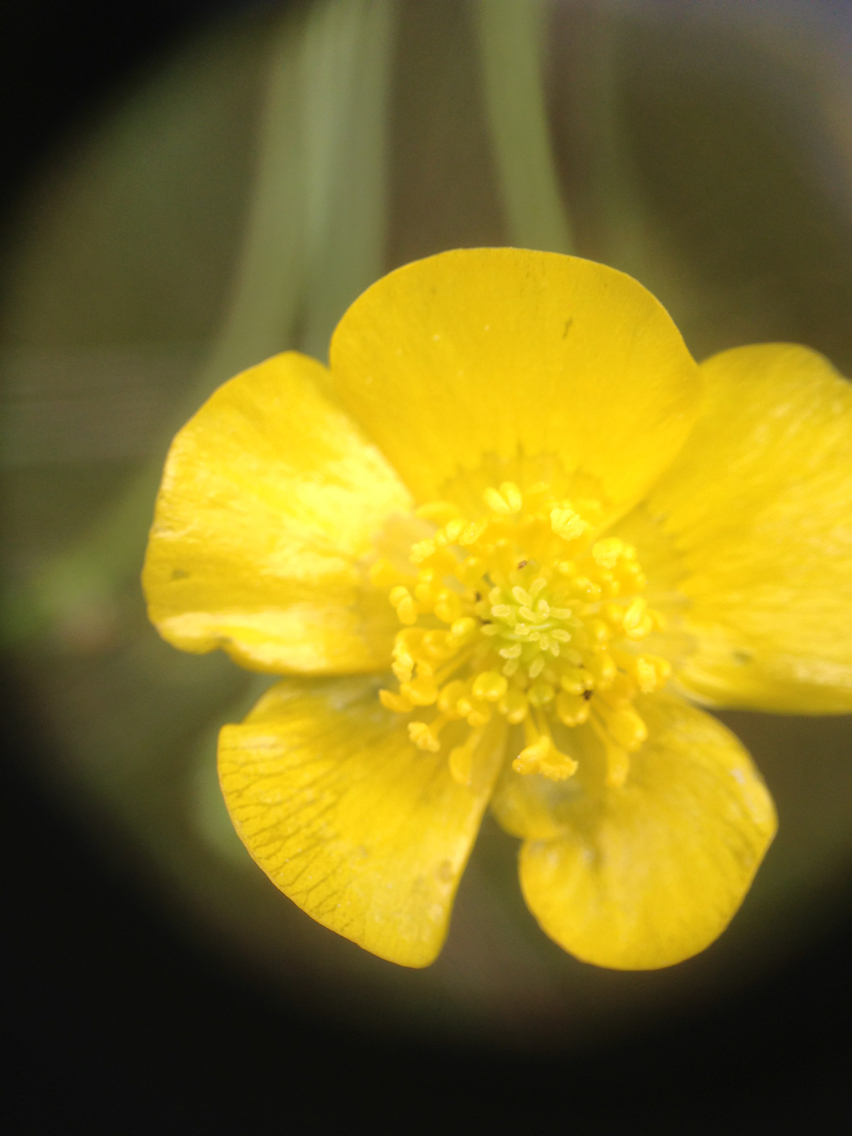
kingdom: Plantae
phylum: Tracheophyta
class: Magnoliopsida
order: Ranunculales
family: Ranunculaceae
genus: Ranunculus
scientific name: Ranunculus acris
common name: Meadow buttercup
